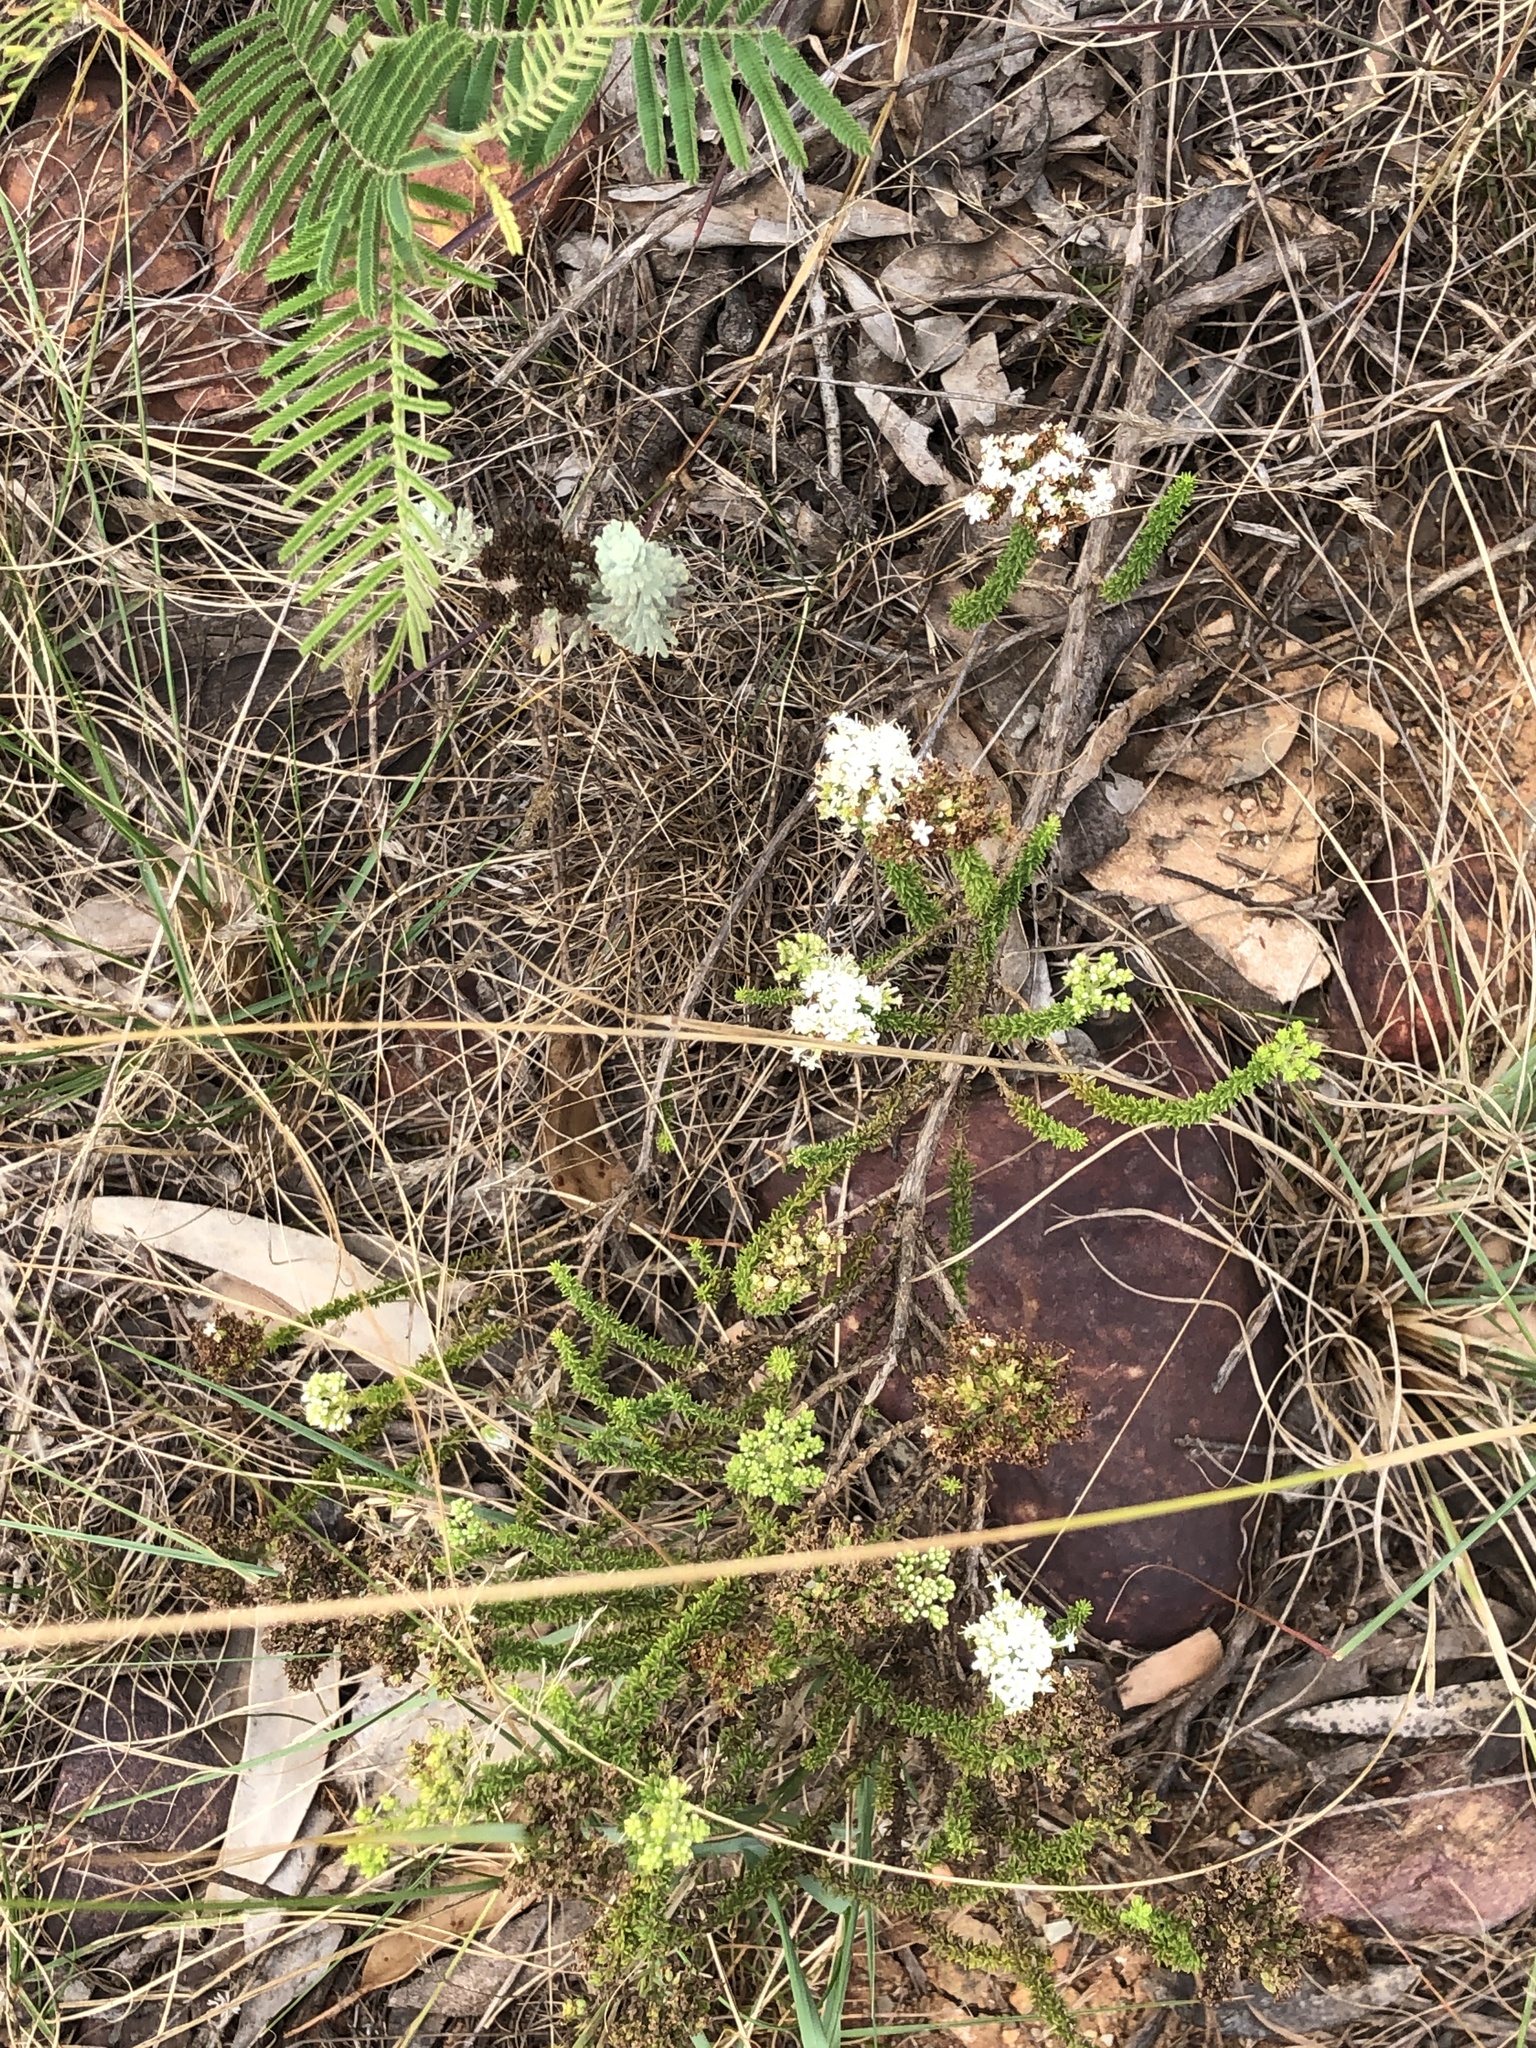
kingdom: Plantae
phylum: Tracheophyta
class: Magnoliopsida
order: Lamiales
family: Scrophulariaceae
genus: Selago
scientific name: Selago dolosa
